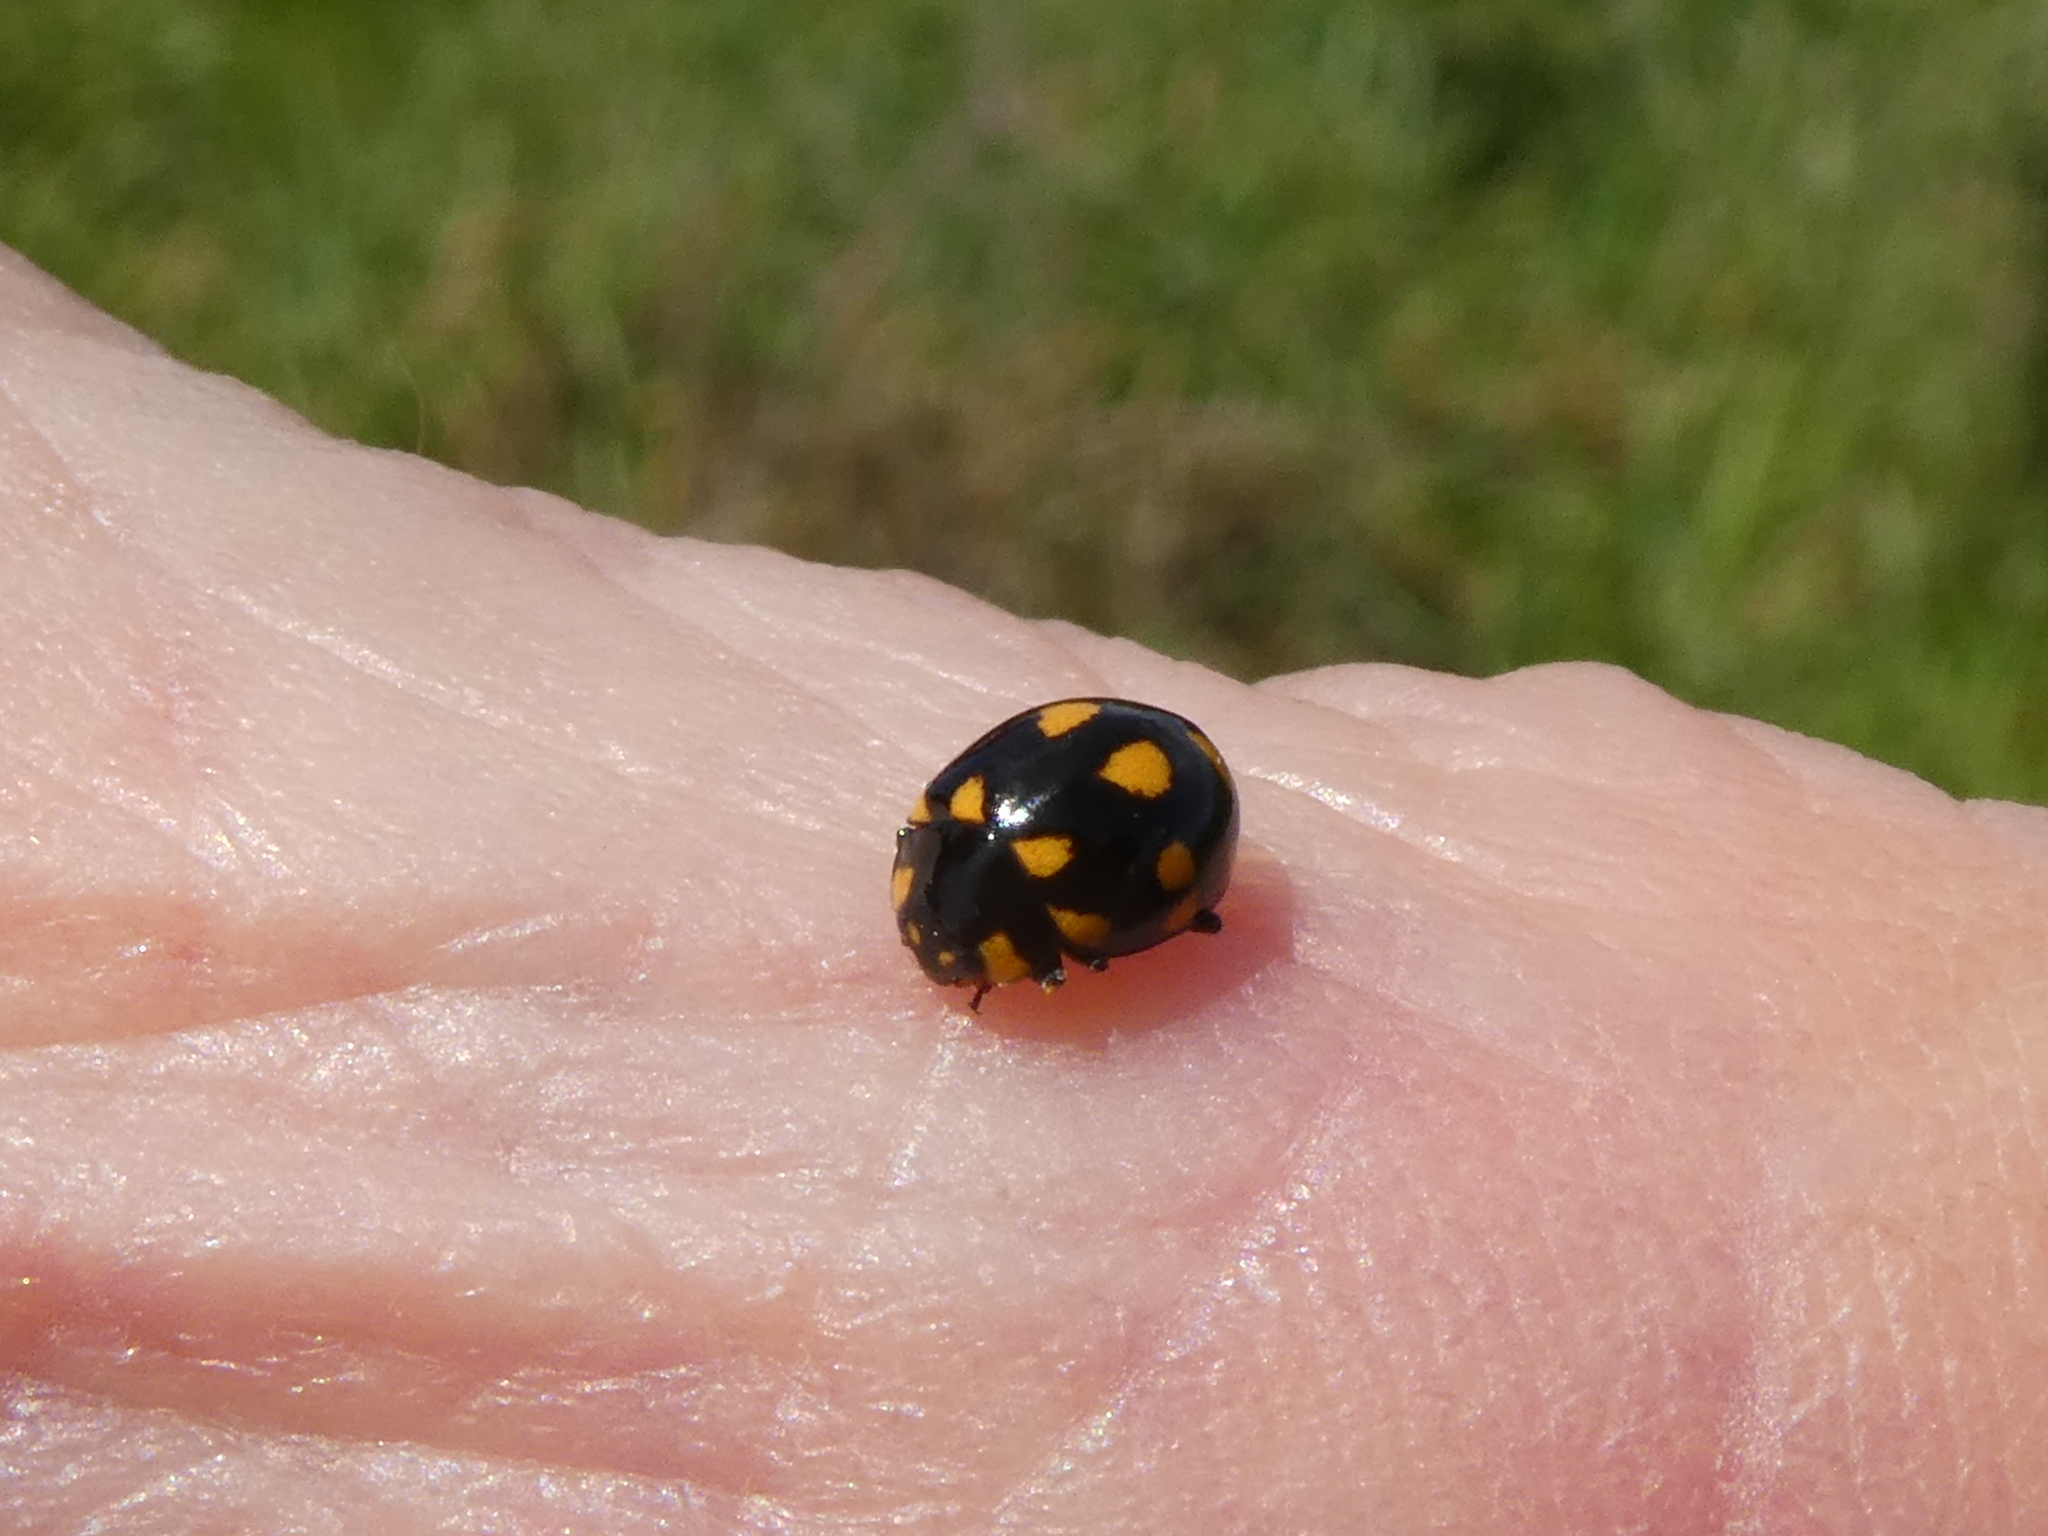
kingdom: Animalia
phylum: Arthropoda
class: Insecta
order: Coleoptera
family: Coccinellidae
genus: Coccinella
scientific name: Coccinella leonina
